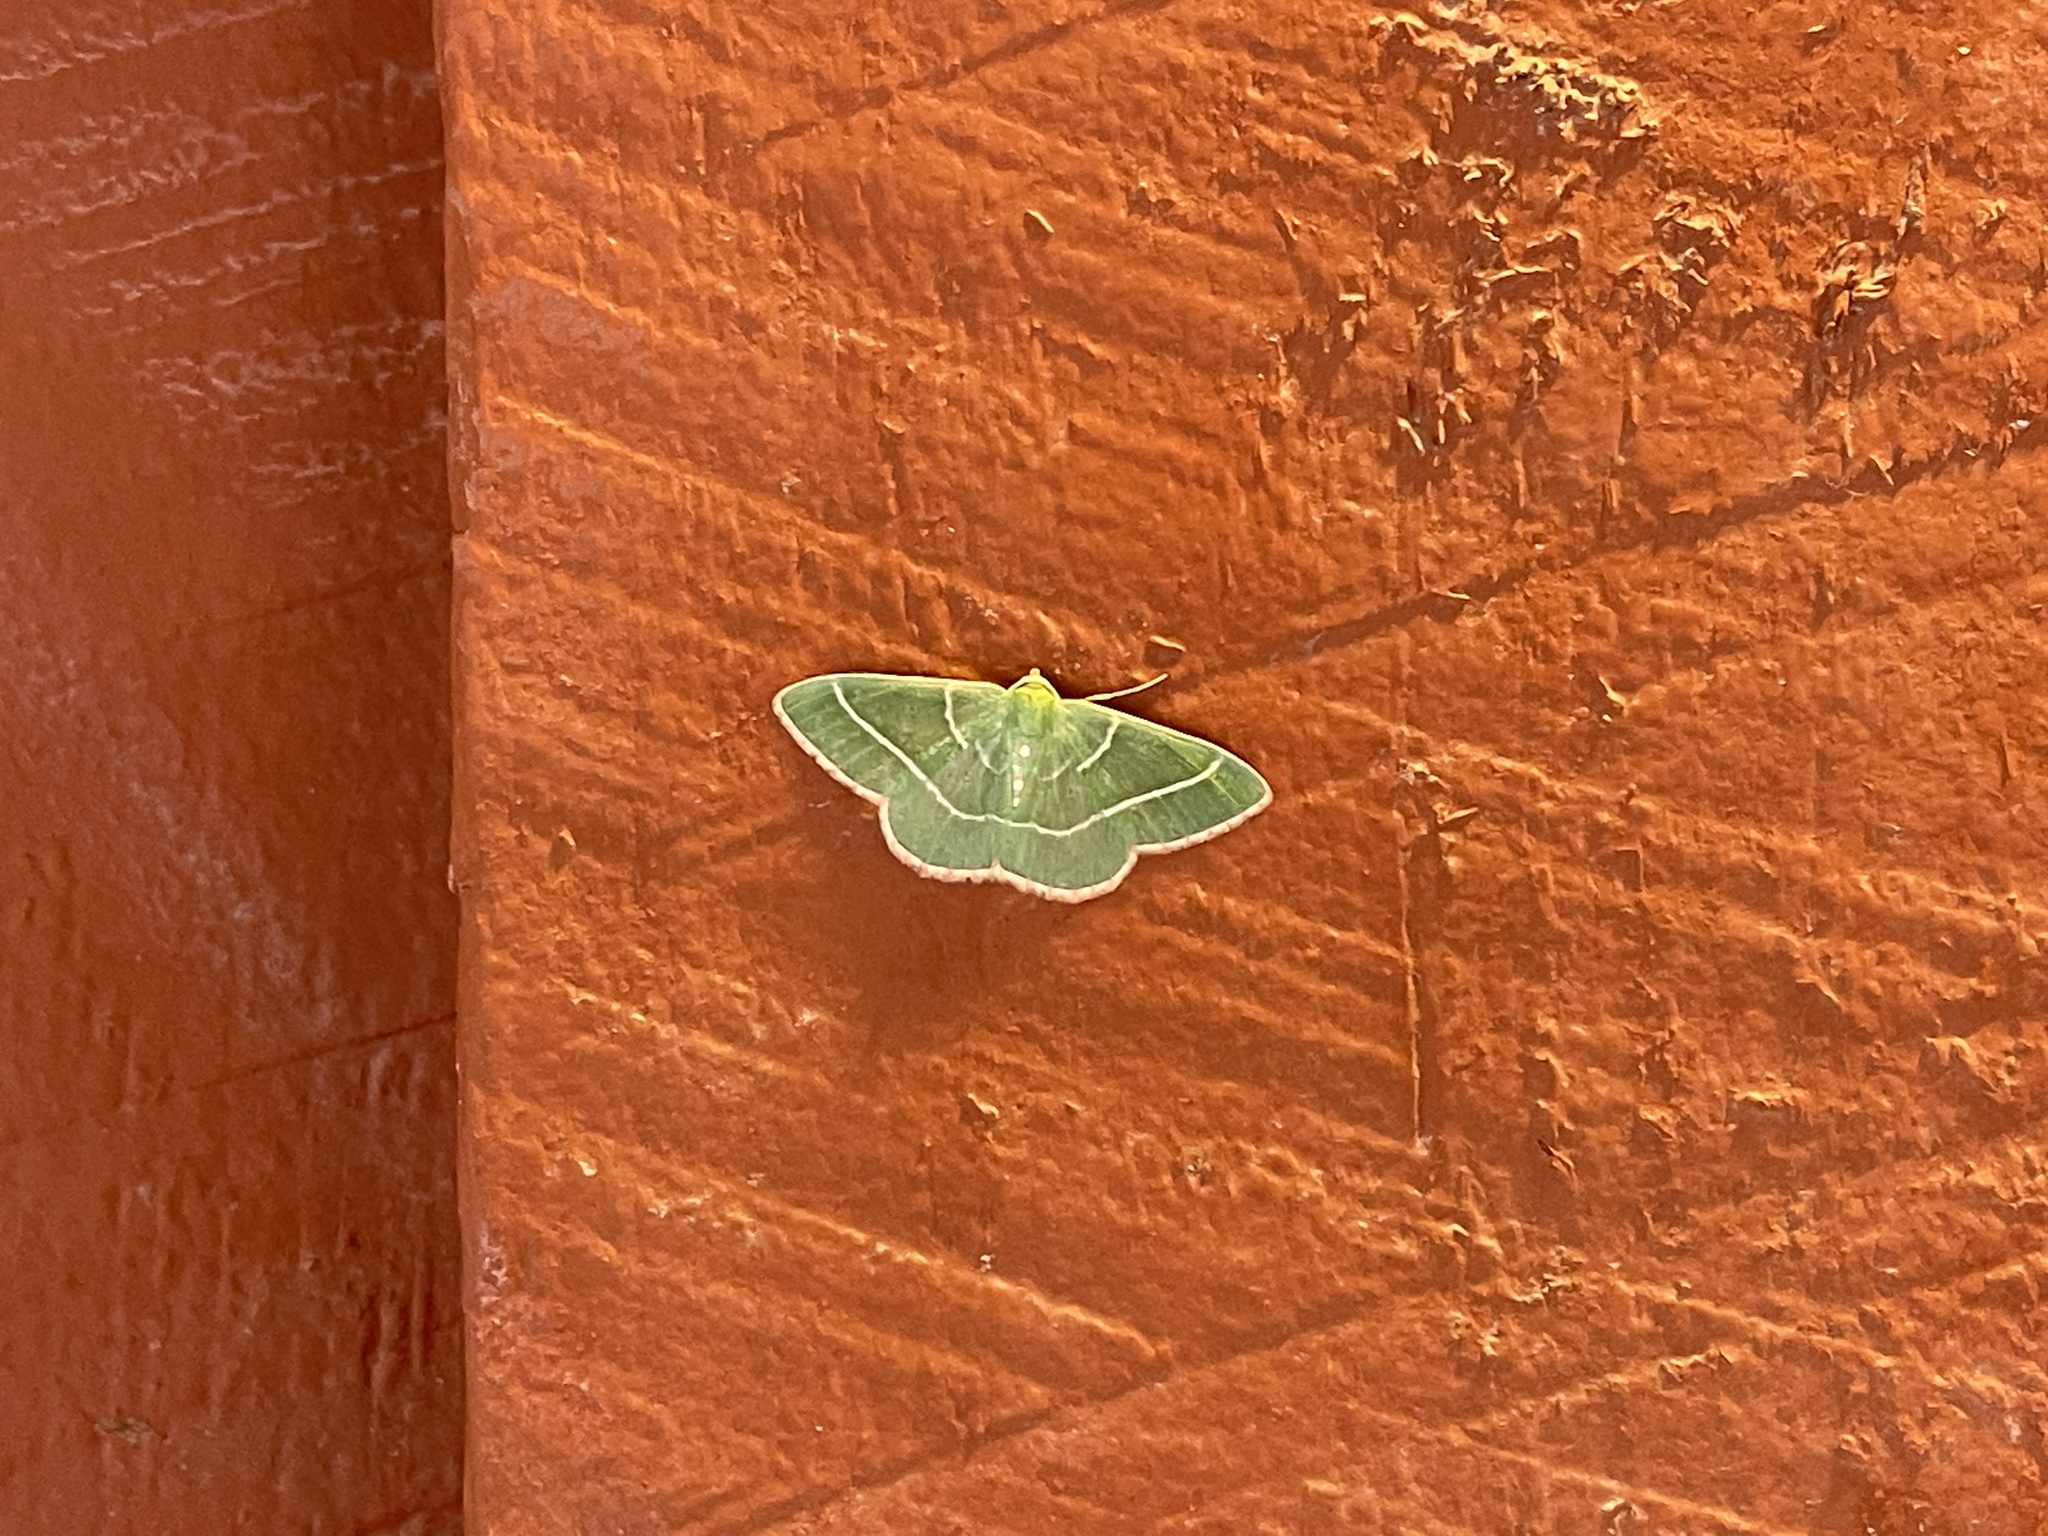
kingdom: Animalia
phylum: Arthropoda
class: Insecta
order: Lepidoptera
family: Geometridae
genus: Nemoria
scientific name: Nemoria obliqua
